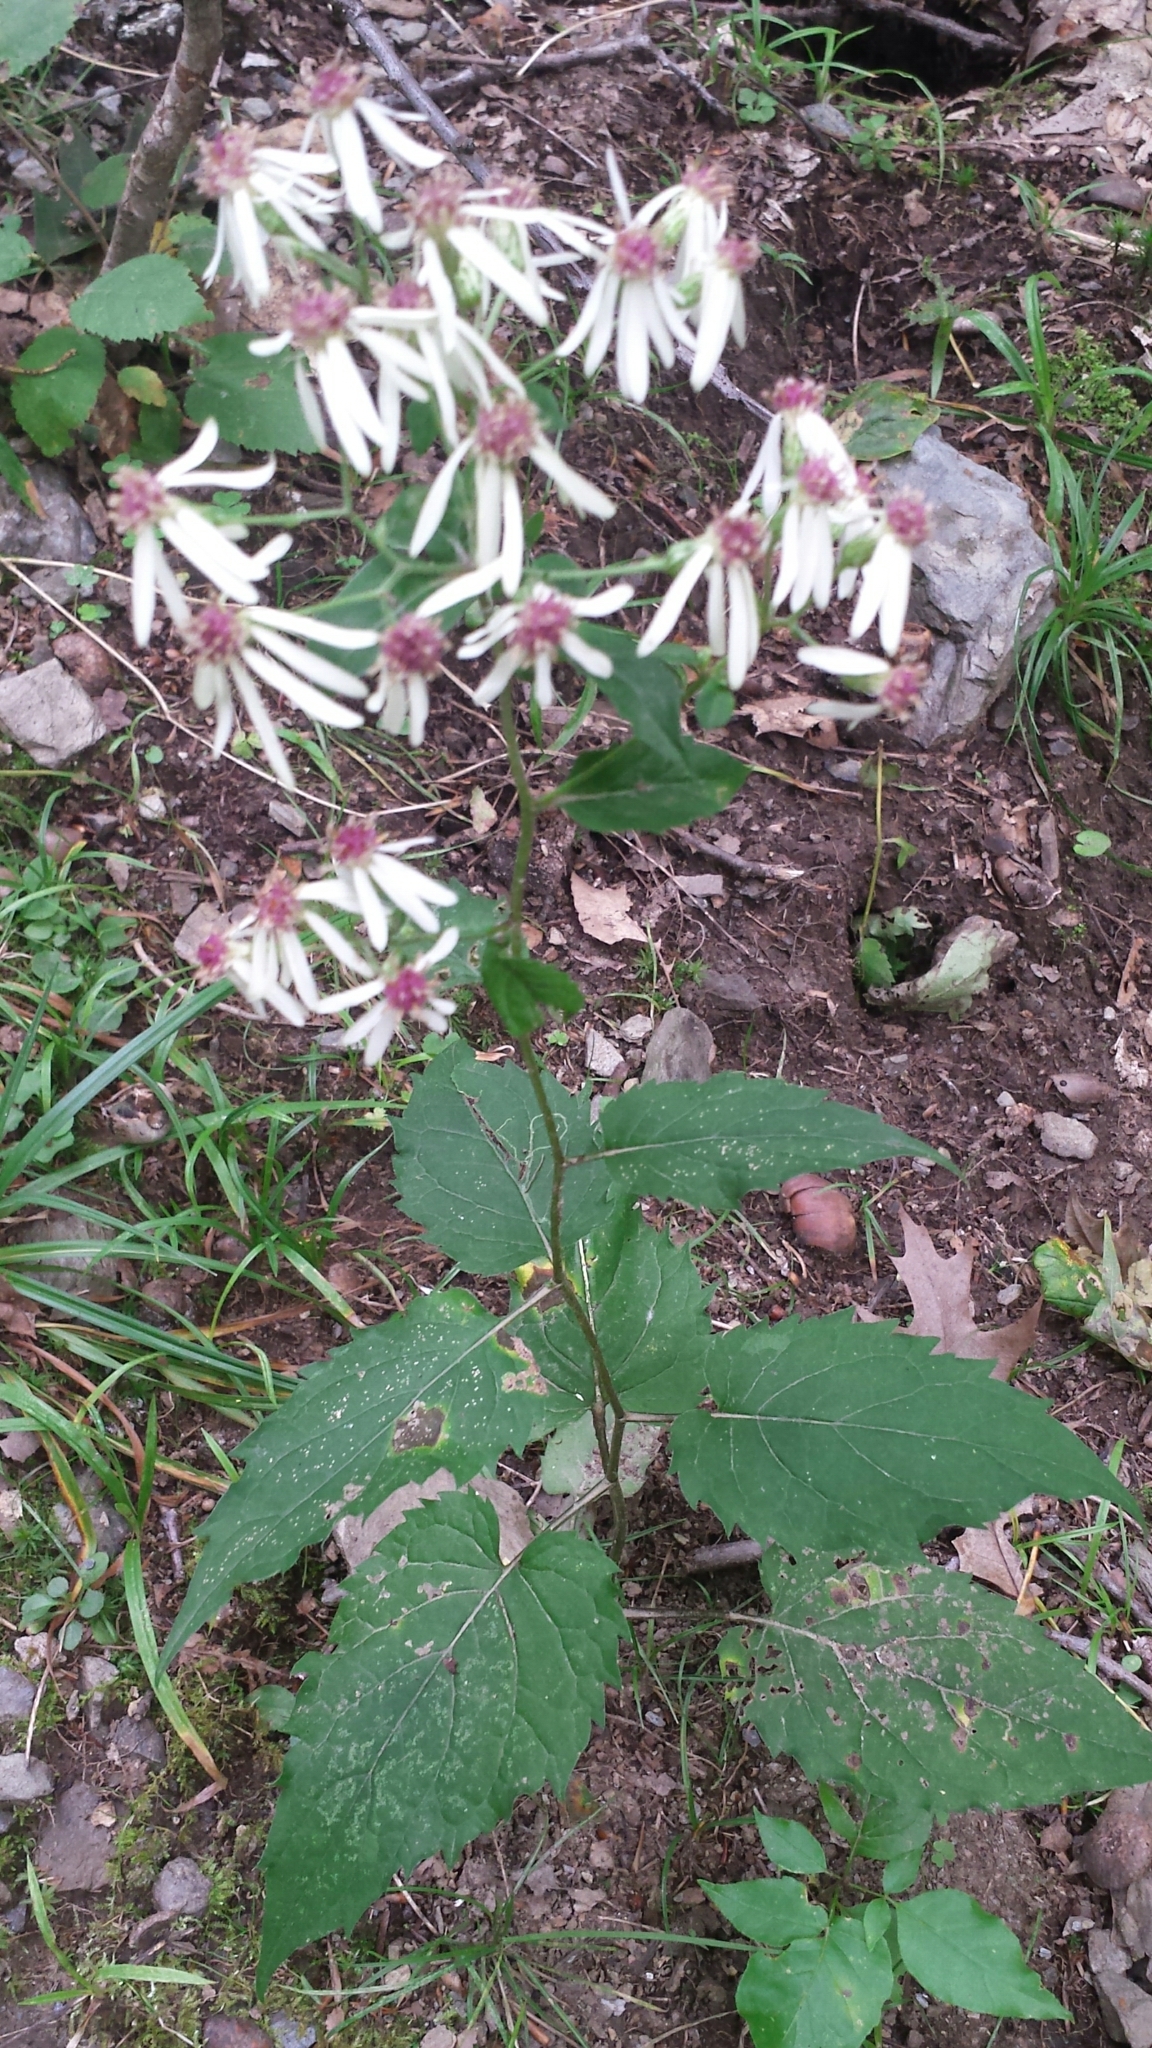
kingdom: Plantae
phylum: Tracheophyta
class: Magnoliopsida
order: Asterales
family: Asteraceae
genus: Eurybia
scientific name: Eurybia divaricata
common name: White wood aster
